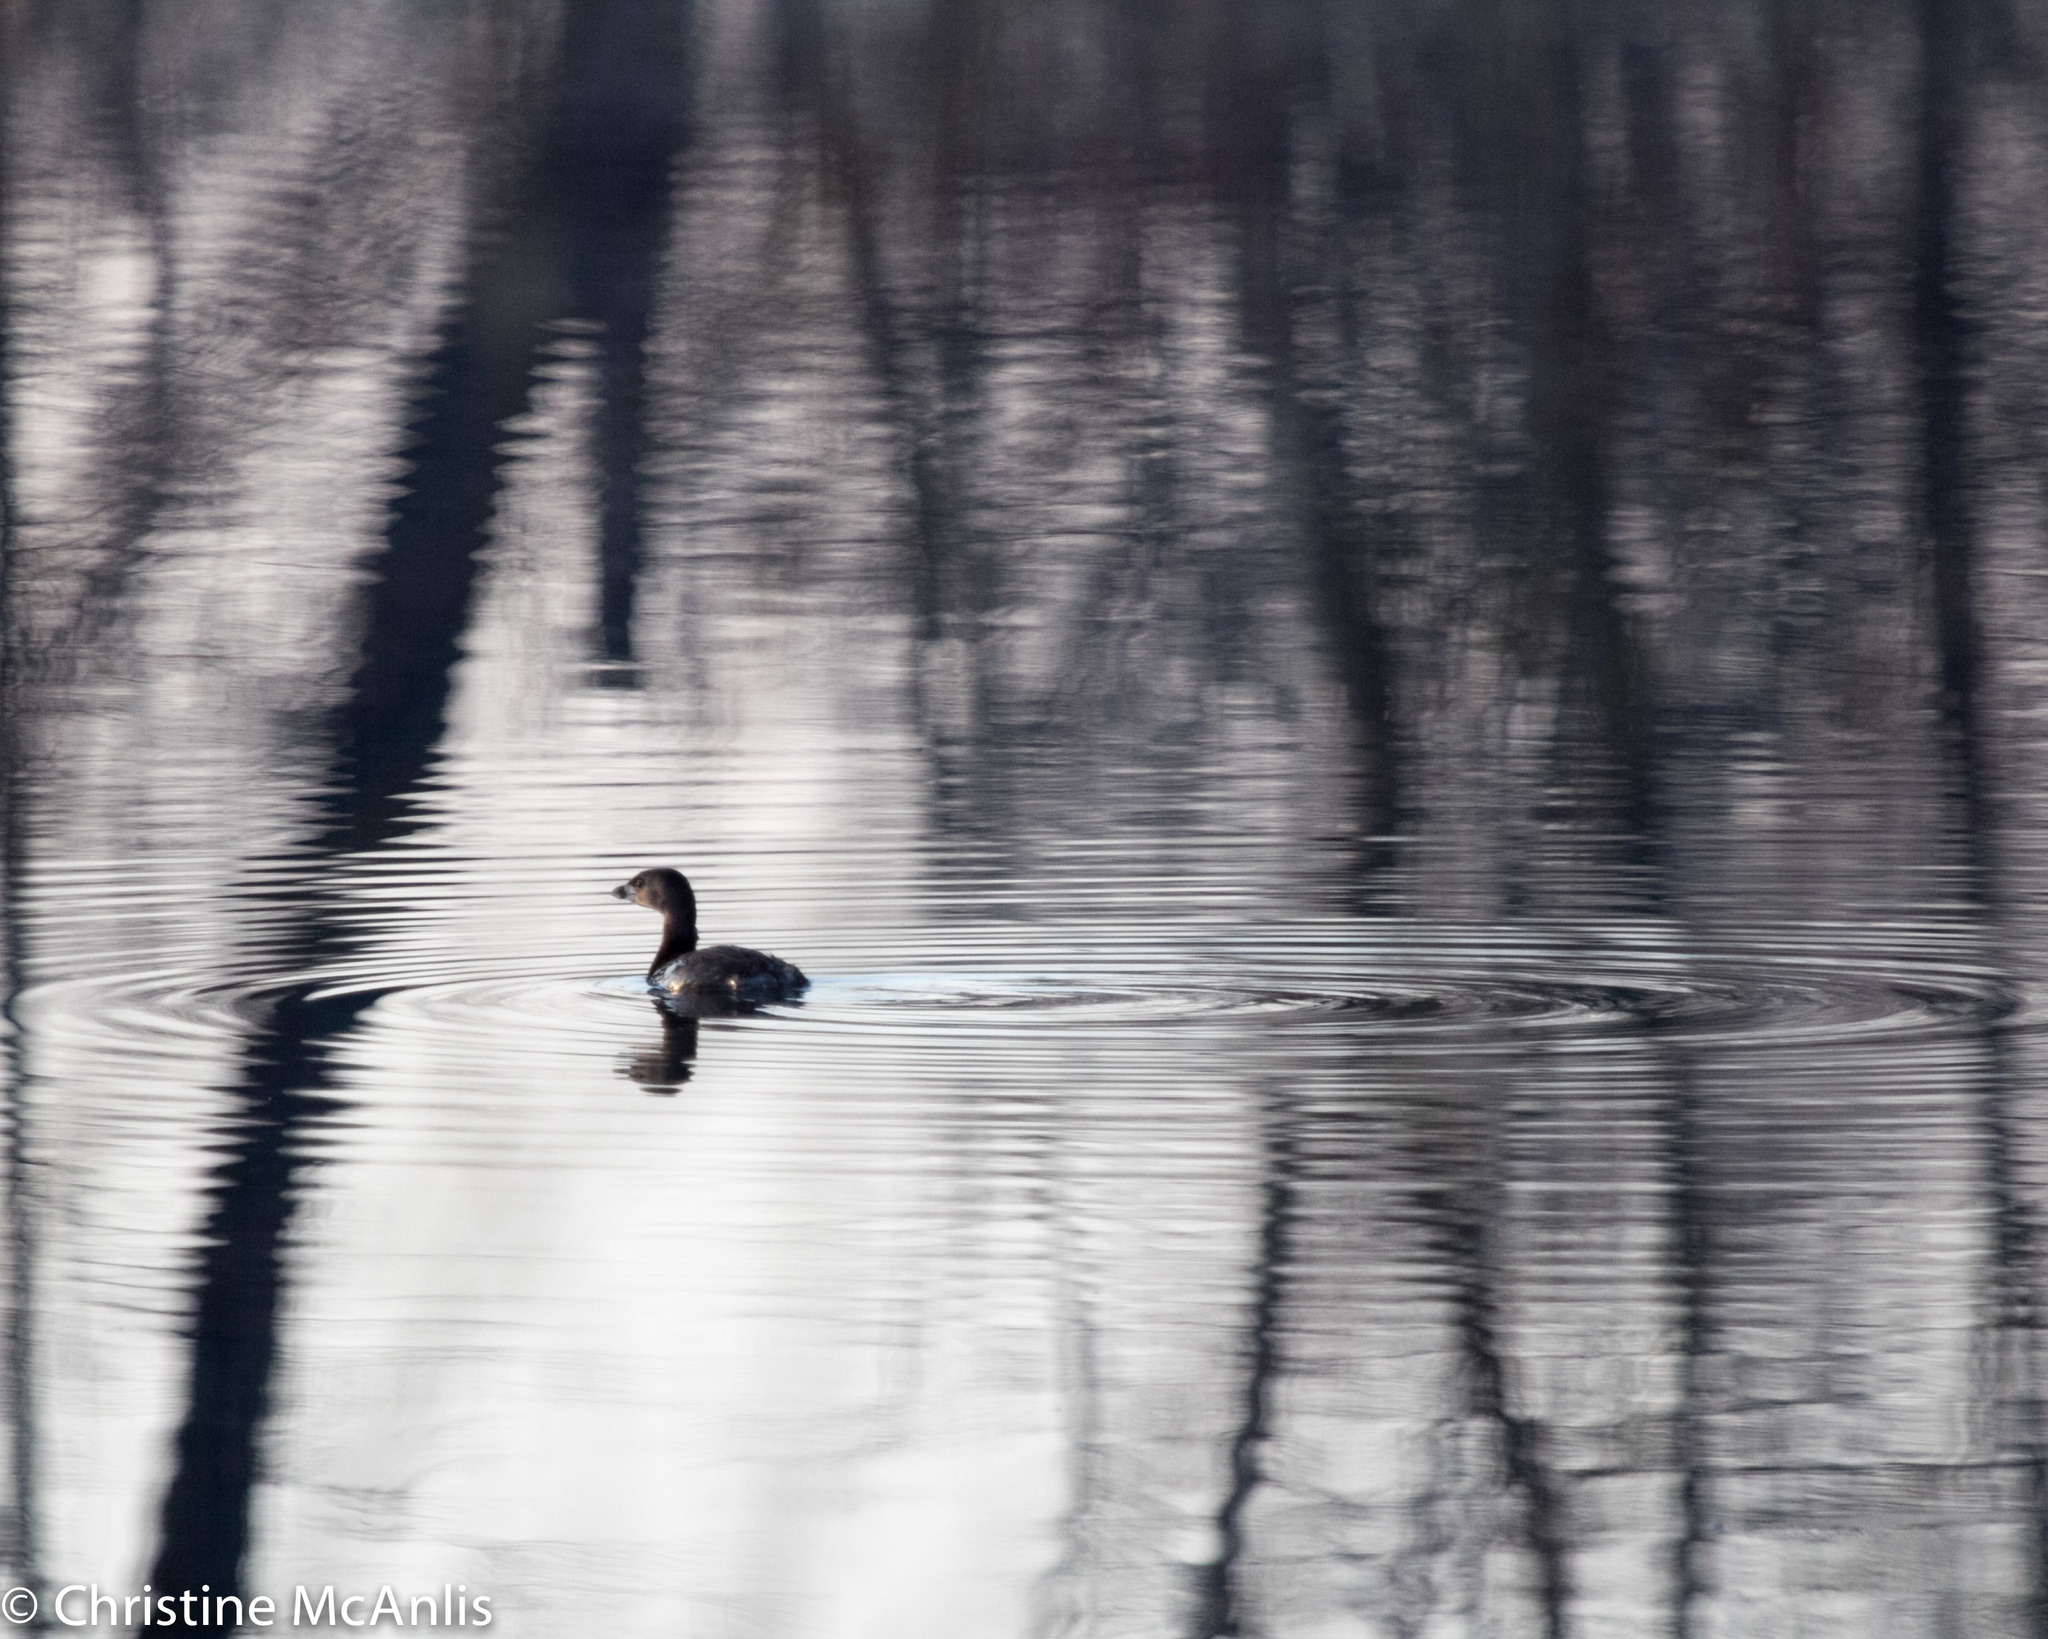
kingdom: Animalia
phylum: Chordata
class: Aves
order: Podicipediformes
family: Podicipedidae
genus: Podilymbus
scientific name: Podilymbus podiceps
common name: Pied-billed grebe
